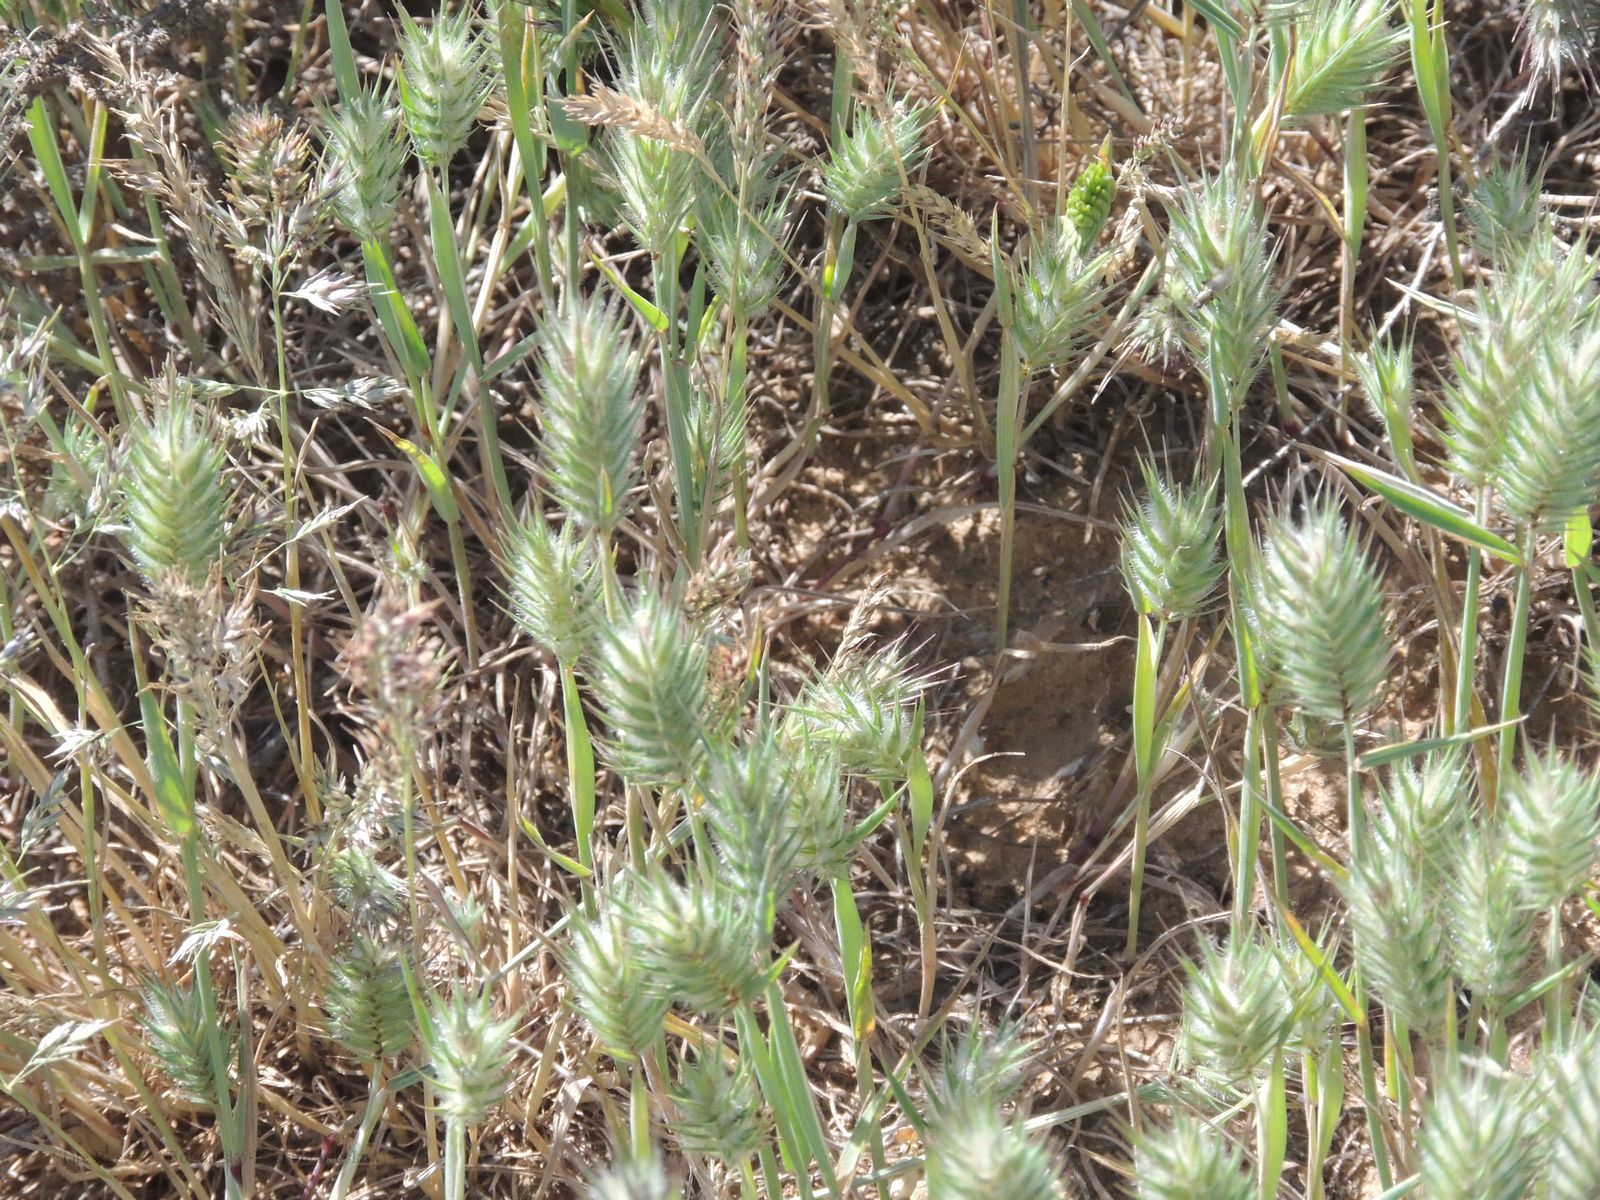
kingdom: Plantae
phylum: Tracheophyta
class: Liliopsida
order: Poales
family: Poaceae
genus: Eremopyrum
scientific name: Eremopyrum orientale
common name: Oriental false wheatgrass
